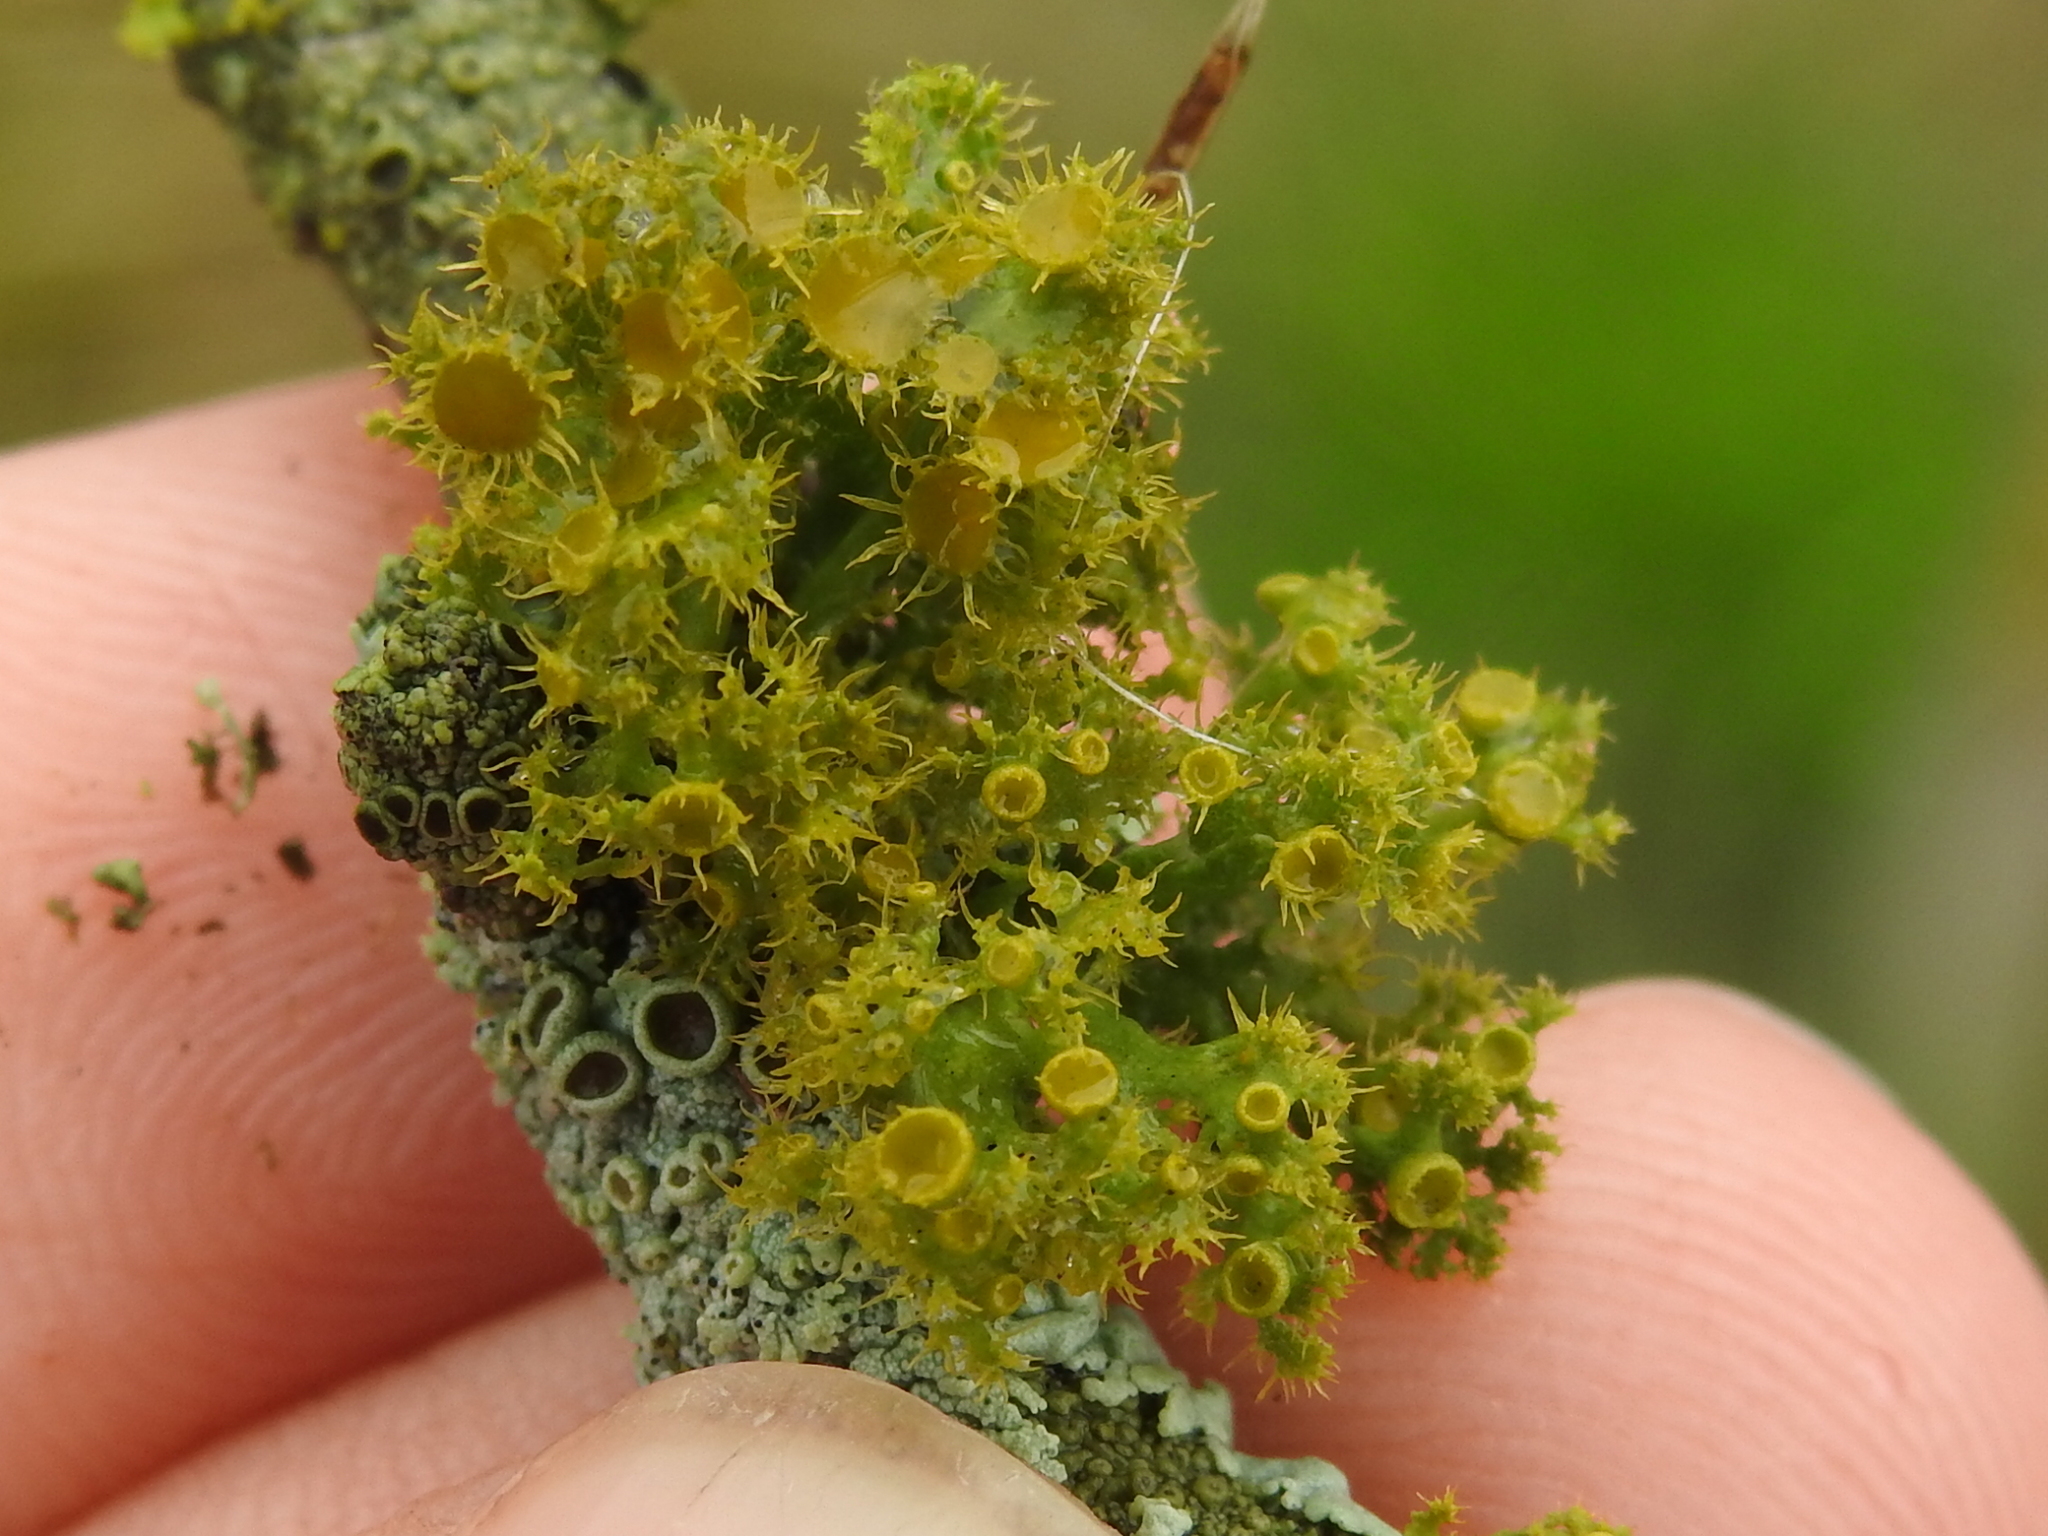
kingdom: Fungi
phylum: Ascomycota
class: Lecanoromycetes
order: Teloschistales
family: Teloschistaceae
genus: Niorma
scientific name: Niorma chrysophthalma
